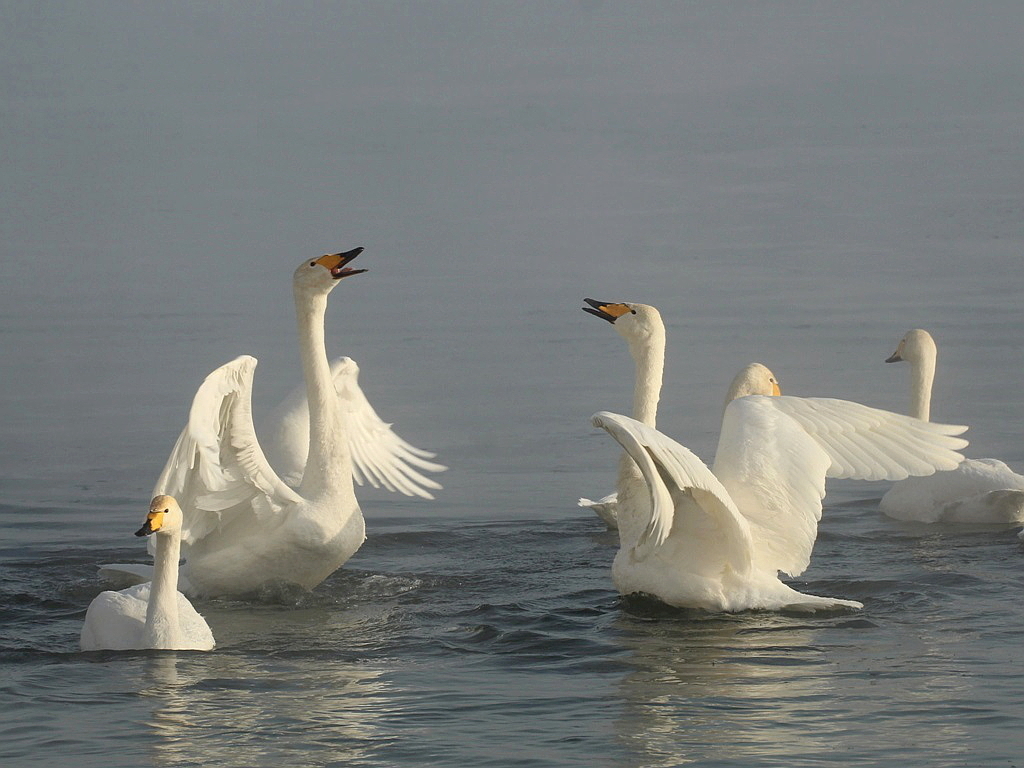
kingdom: Animalia
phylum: Chordata
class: Aves
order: Anseriformes
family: Anatidae
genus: Cygnus
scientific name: Cygnus cygnus
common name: Whooper swan
